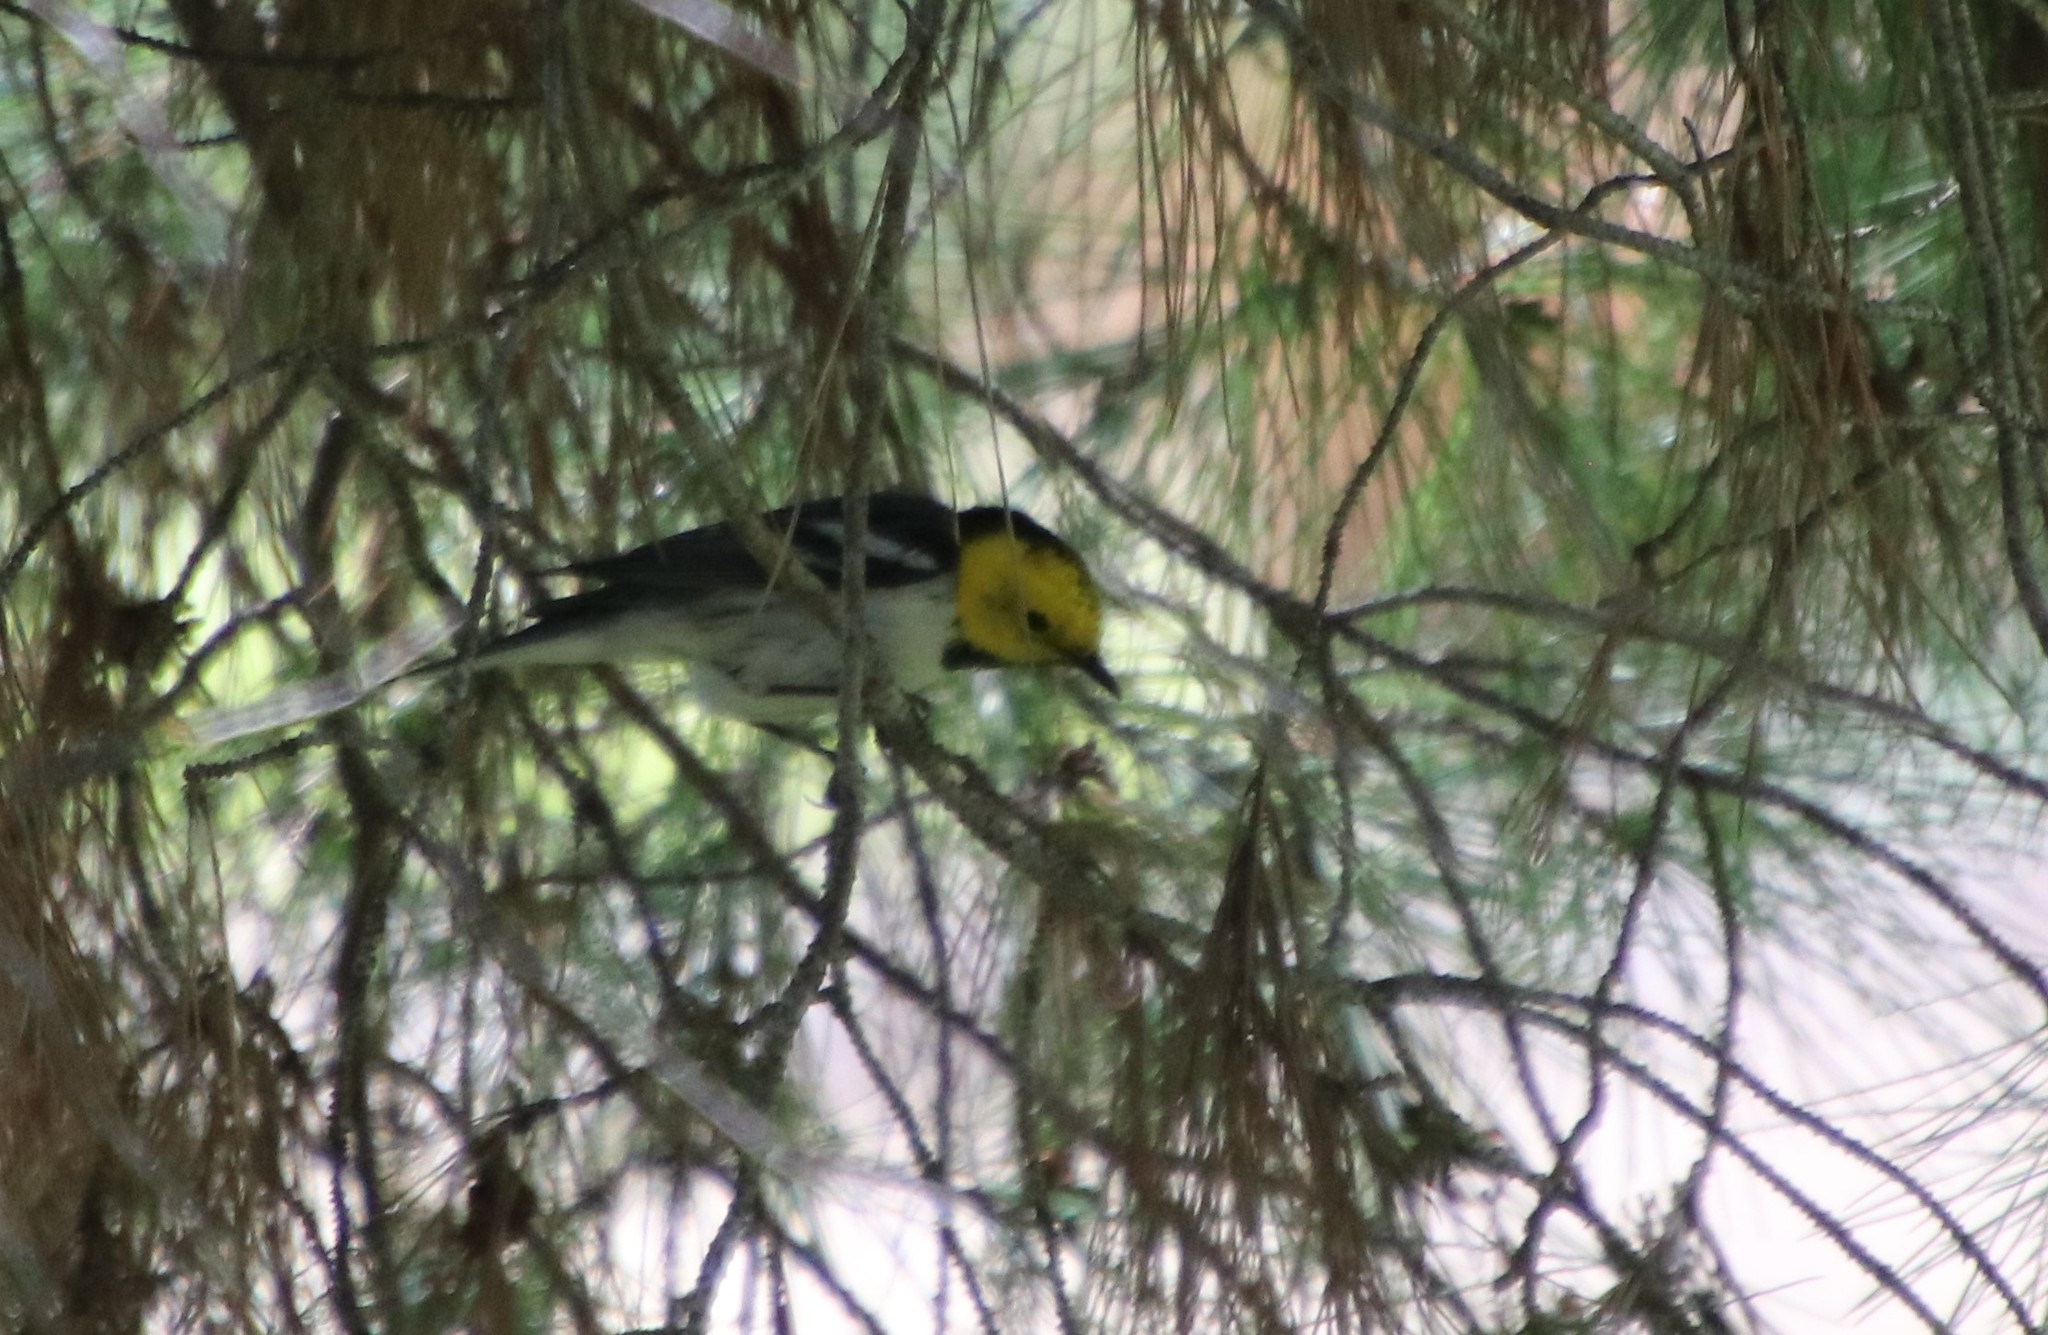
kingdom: Animalia
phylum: Chordata
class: Aves
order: Passeriformes
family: Parulidae
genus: Setophaga
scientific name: Setophaga occidentalis
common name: Hermit warbler
